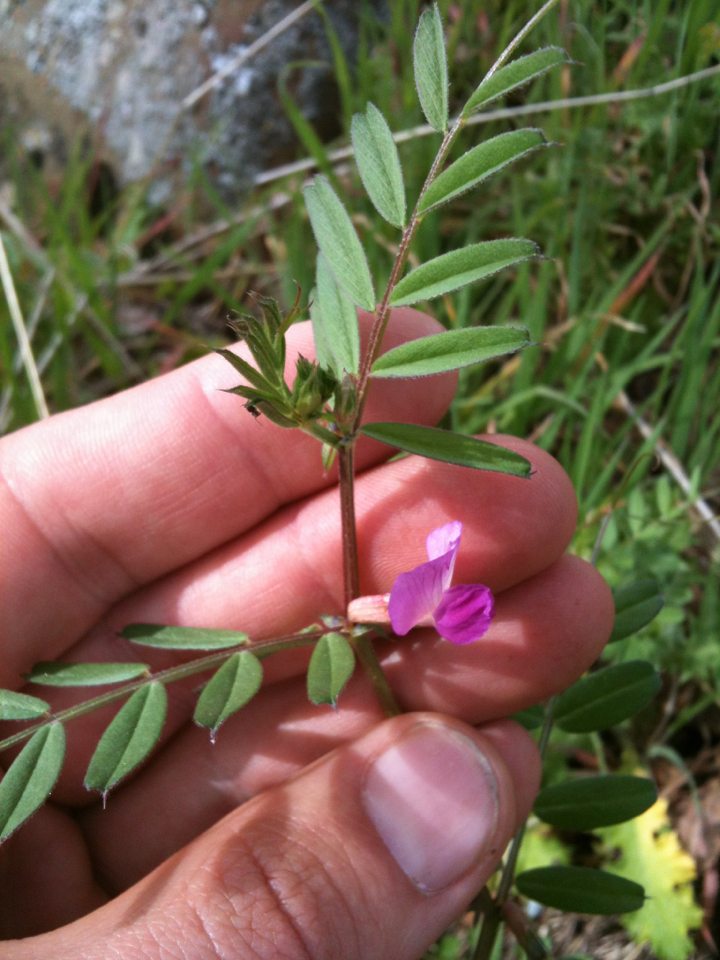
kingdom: Plantae
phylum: Tracheophyta
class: Magnoliopsida
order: Fabales
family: Fabaceae
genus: Vicia
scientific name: Vicia sativa
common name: Garden vetch
